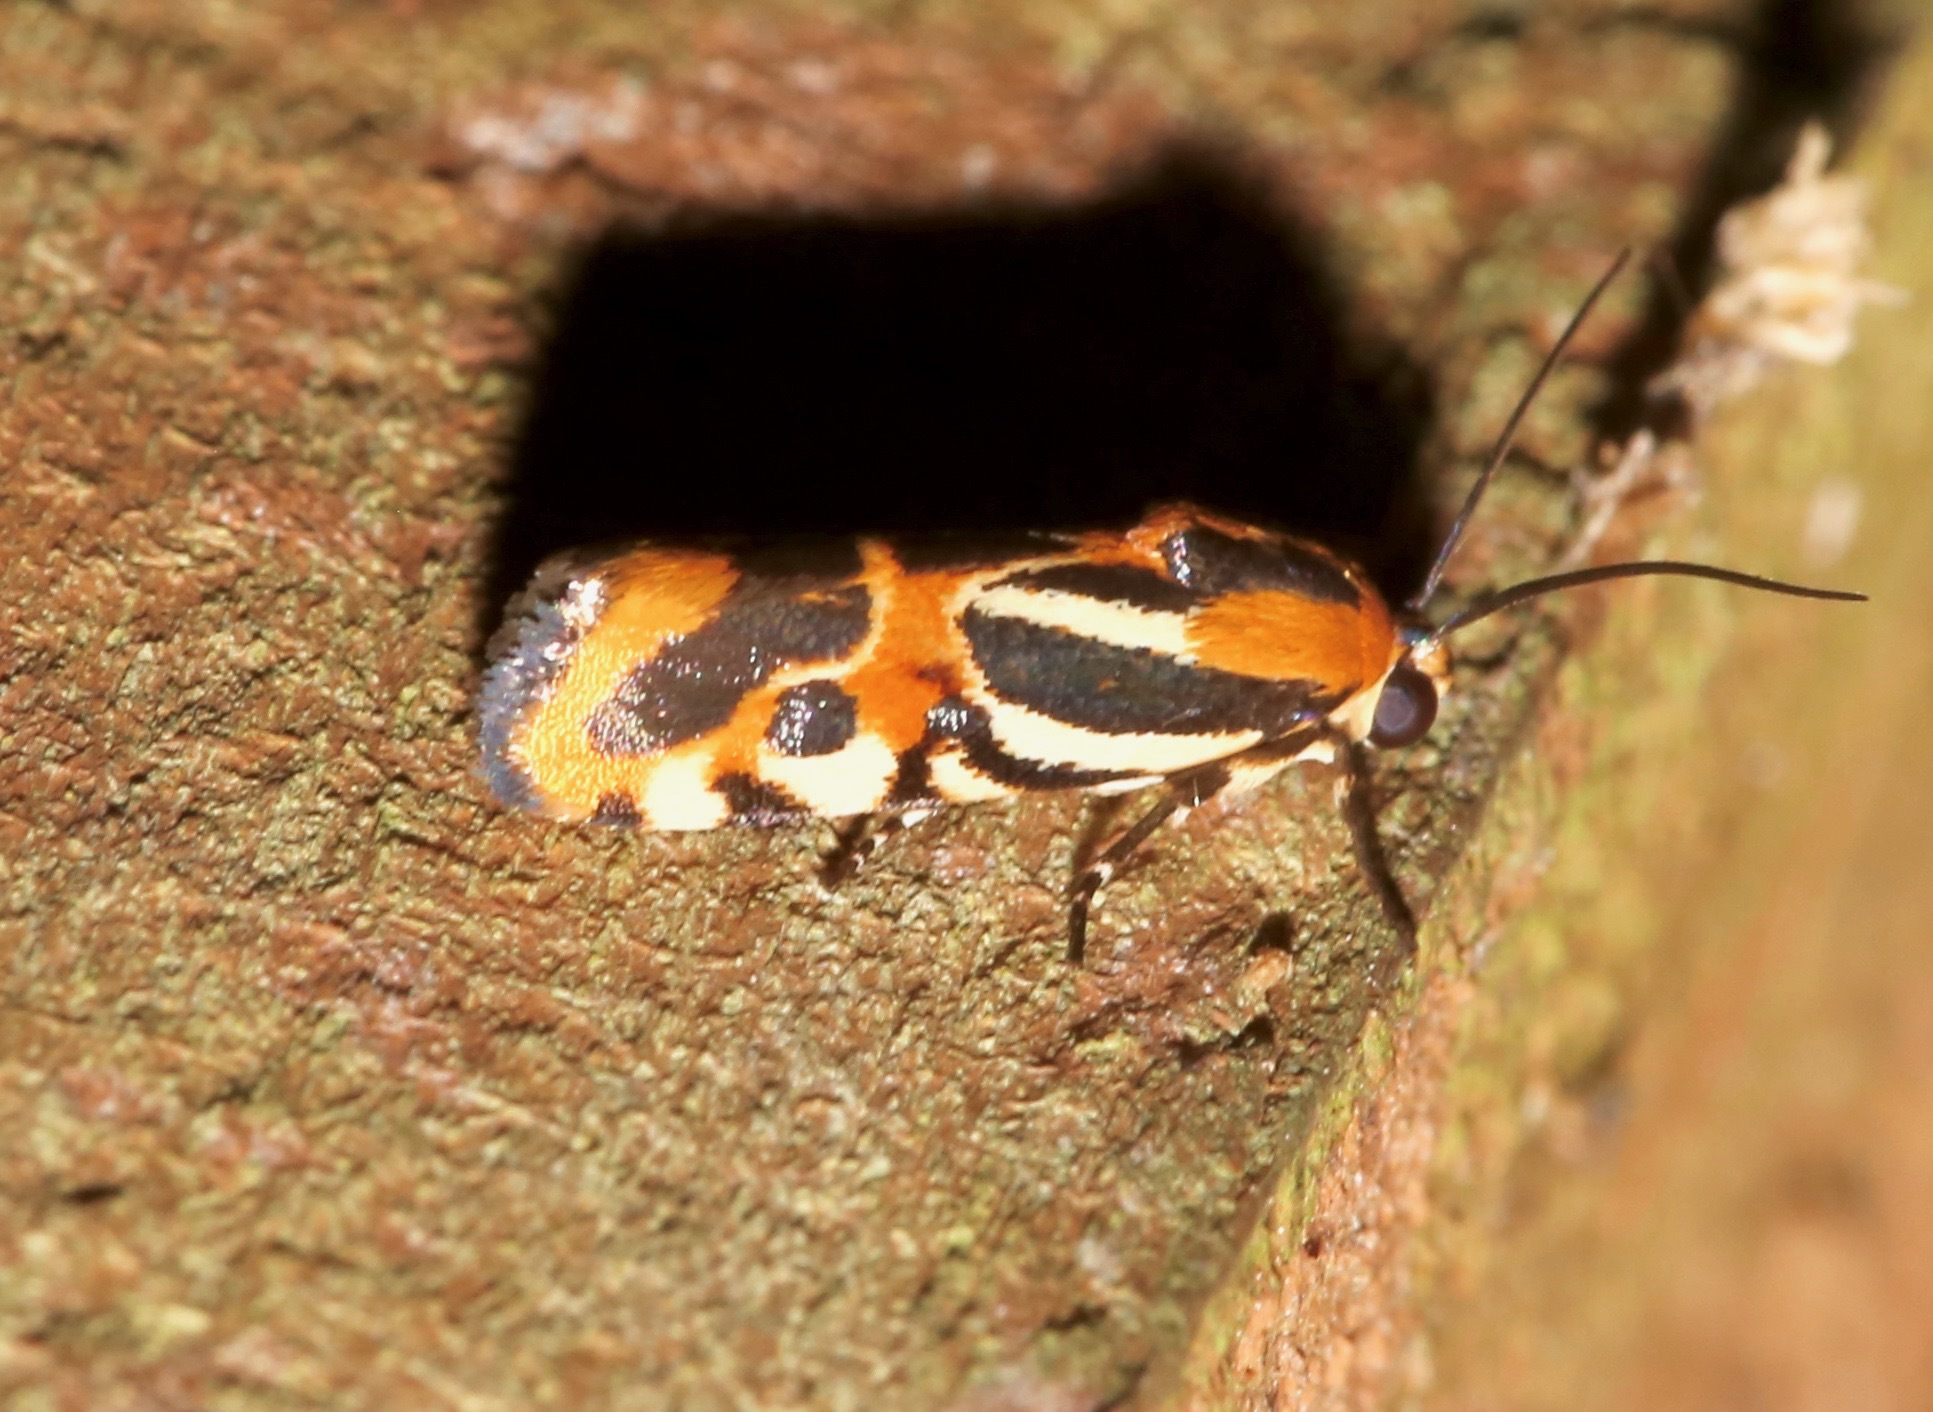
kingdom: Animalia
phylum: Arthropoda
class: Insecta
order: Lepidoptera
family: Noctuidae
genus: Acontia
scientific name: Acontia onagrus
